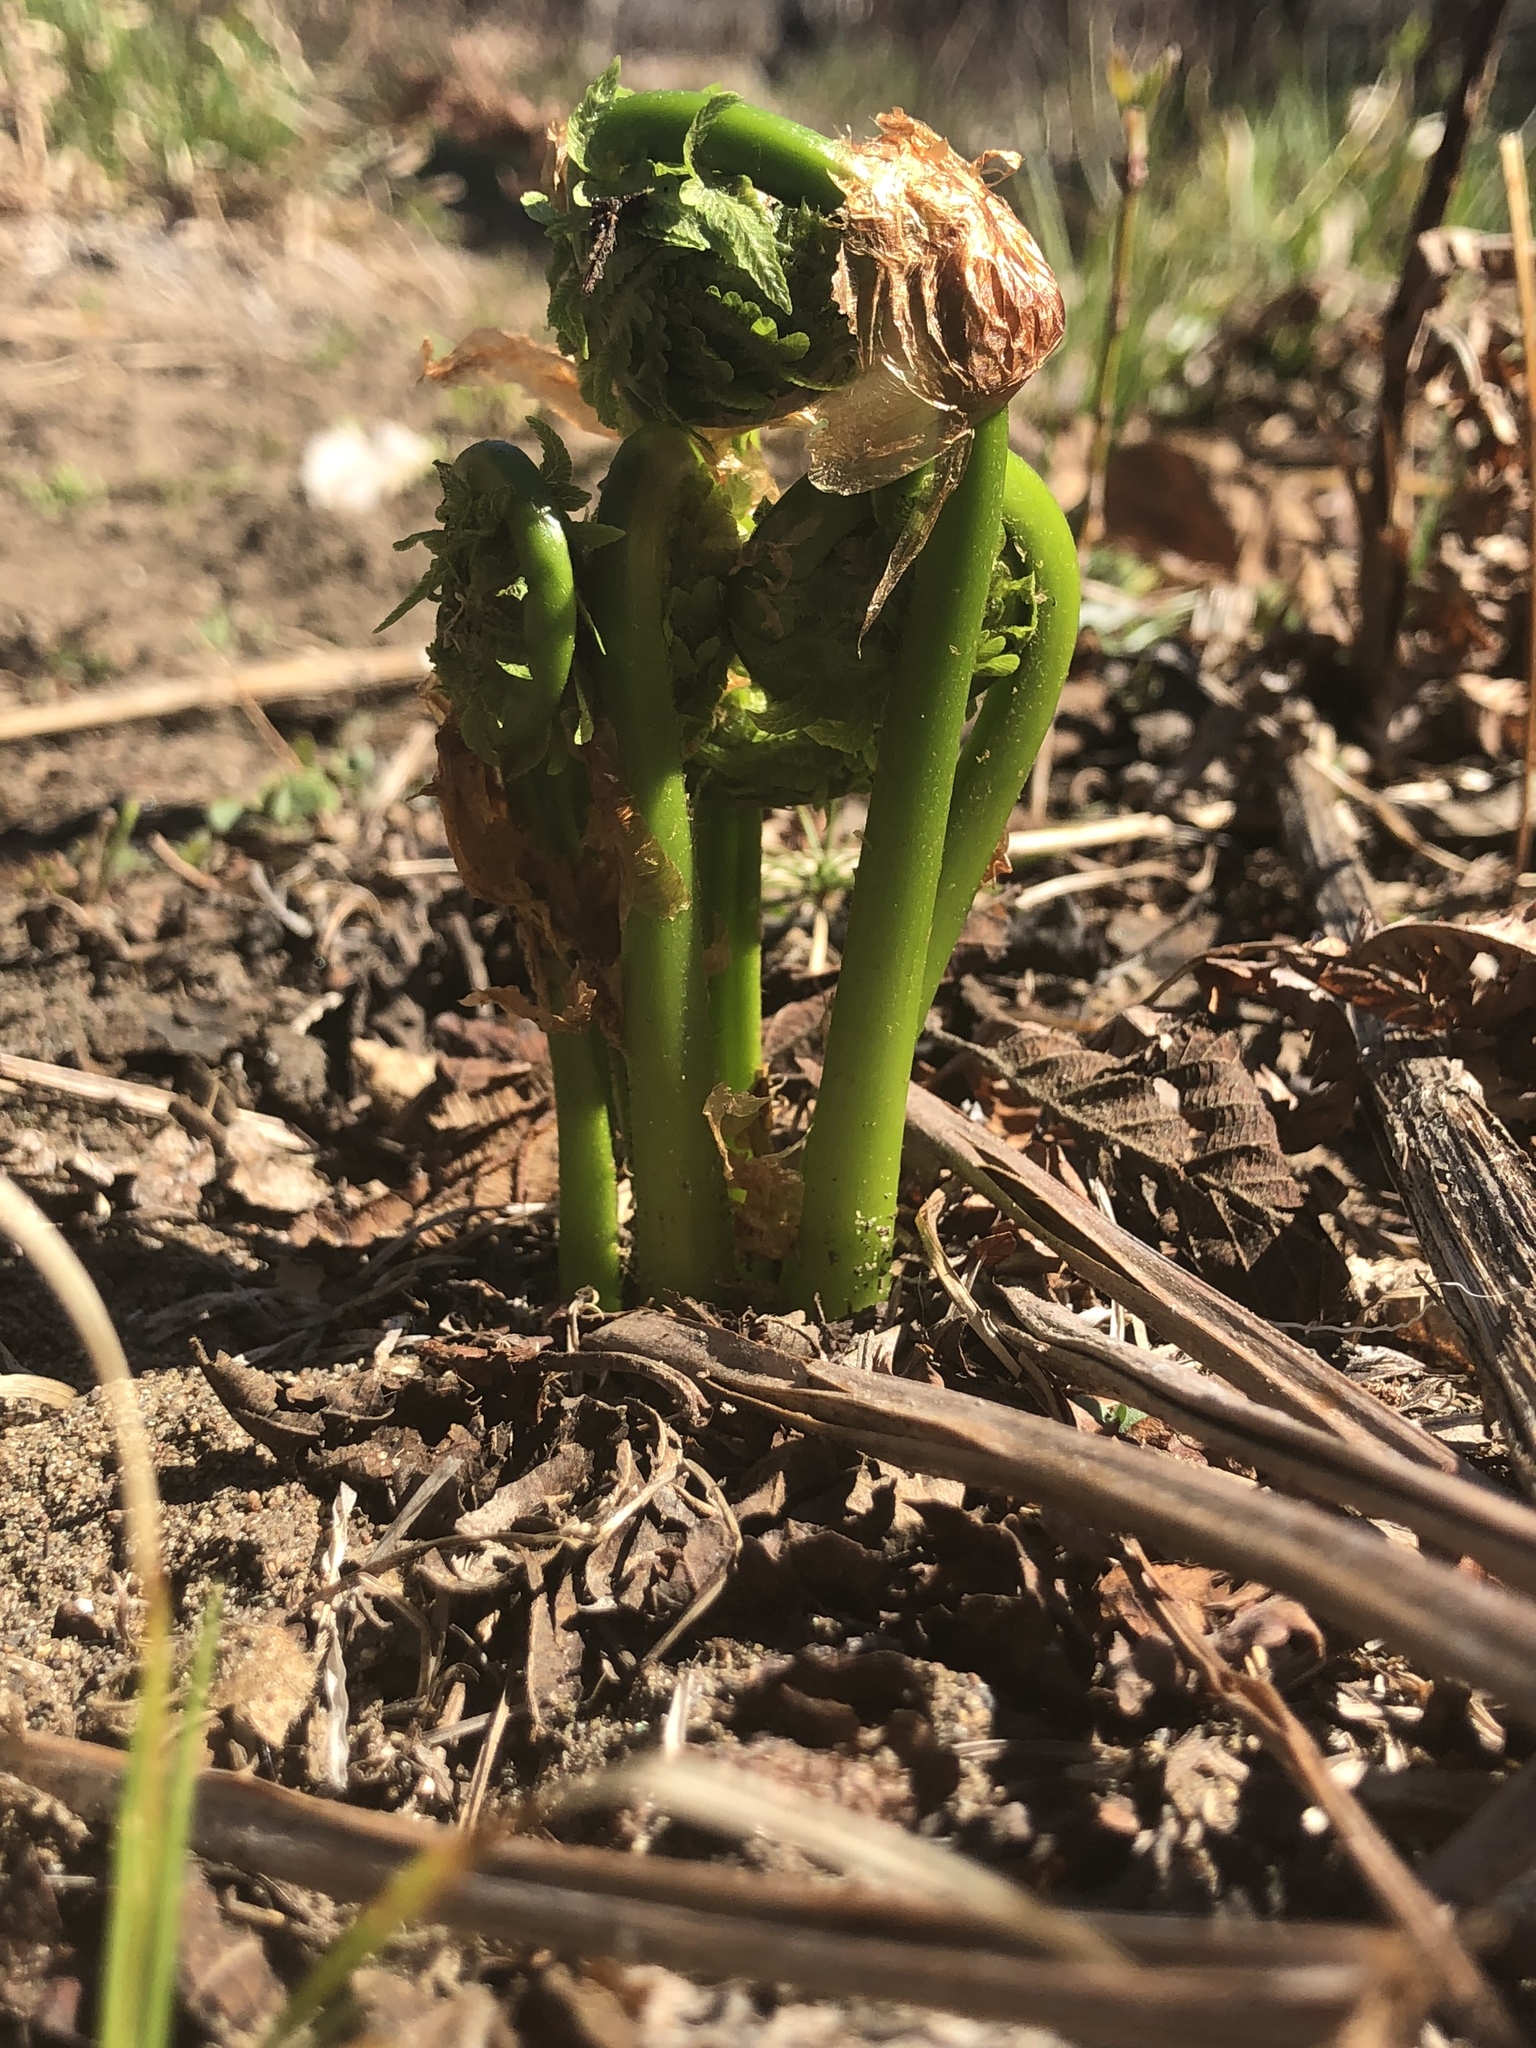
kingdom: Plantae
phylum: Tracheophyta
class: Polypodiopsida
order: Polypodiales
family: Onocleaceae
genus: Matteuccia
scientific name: Matteuccia struthiopteris
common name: Ostrich fern
